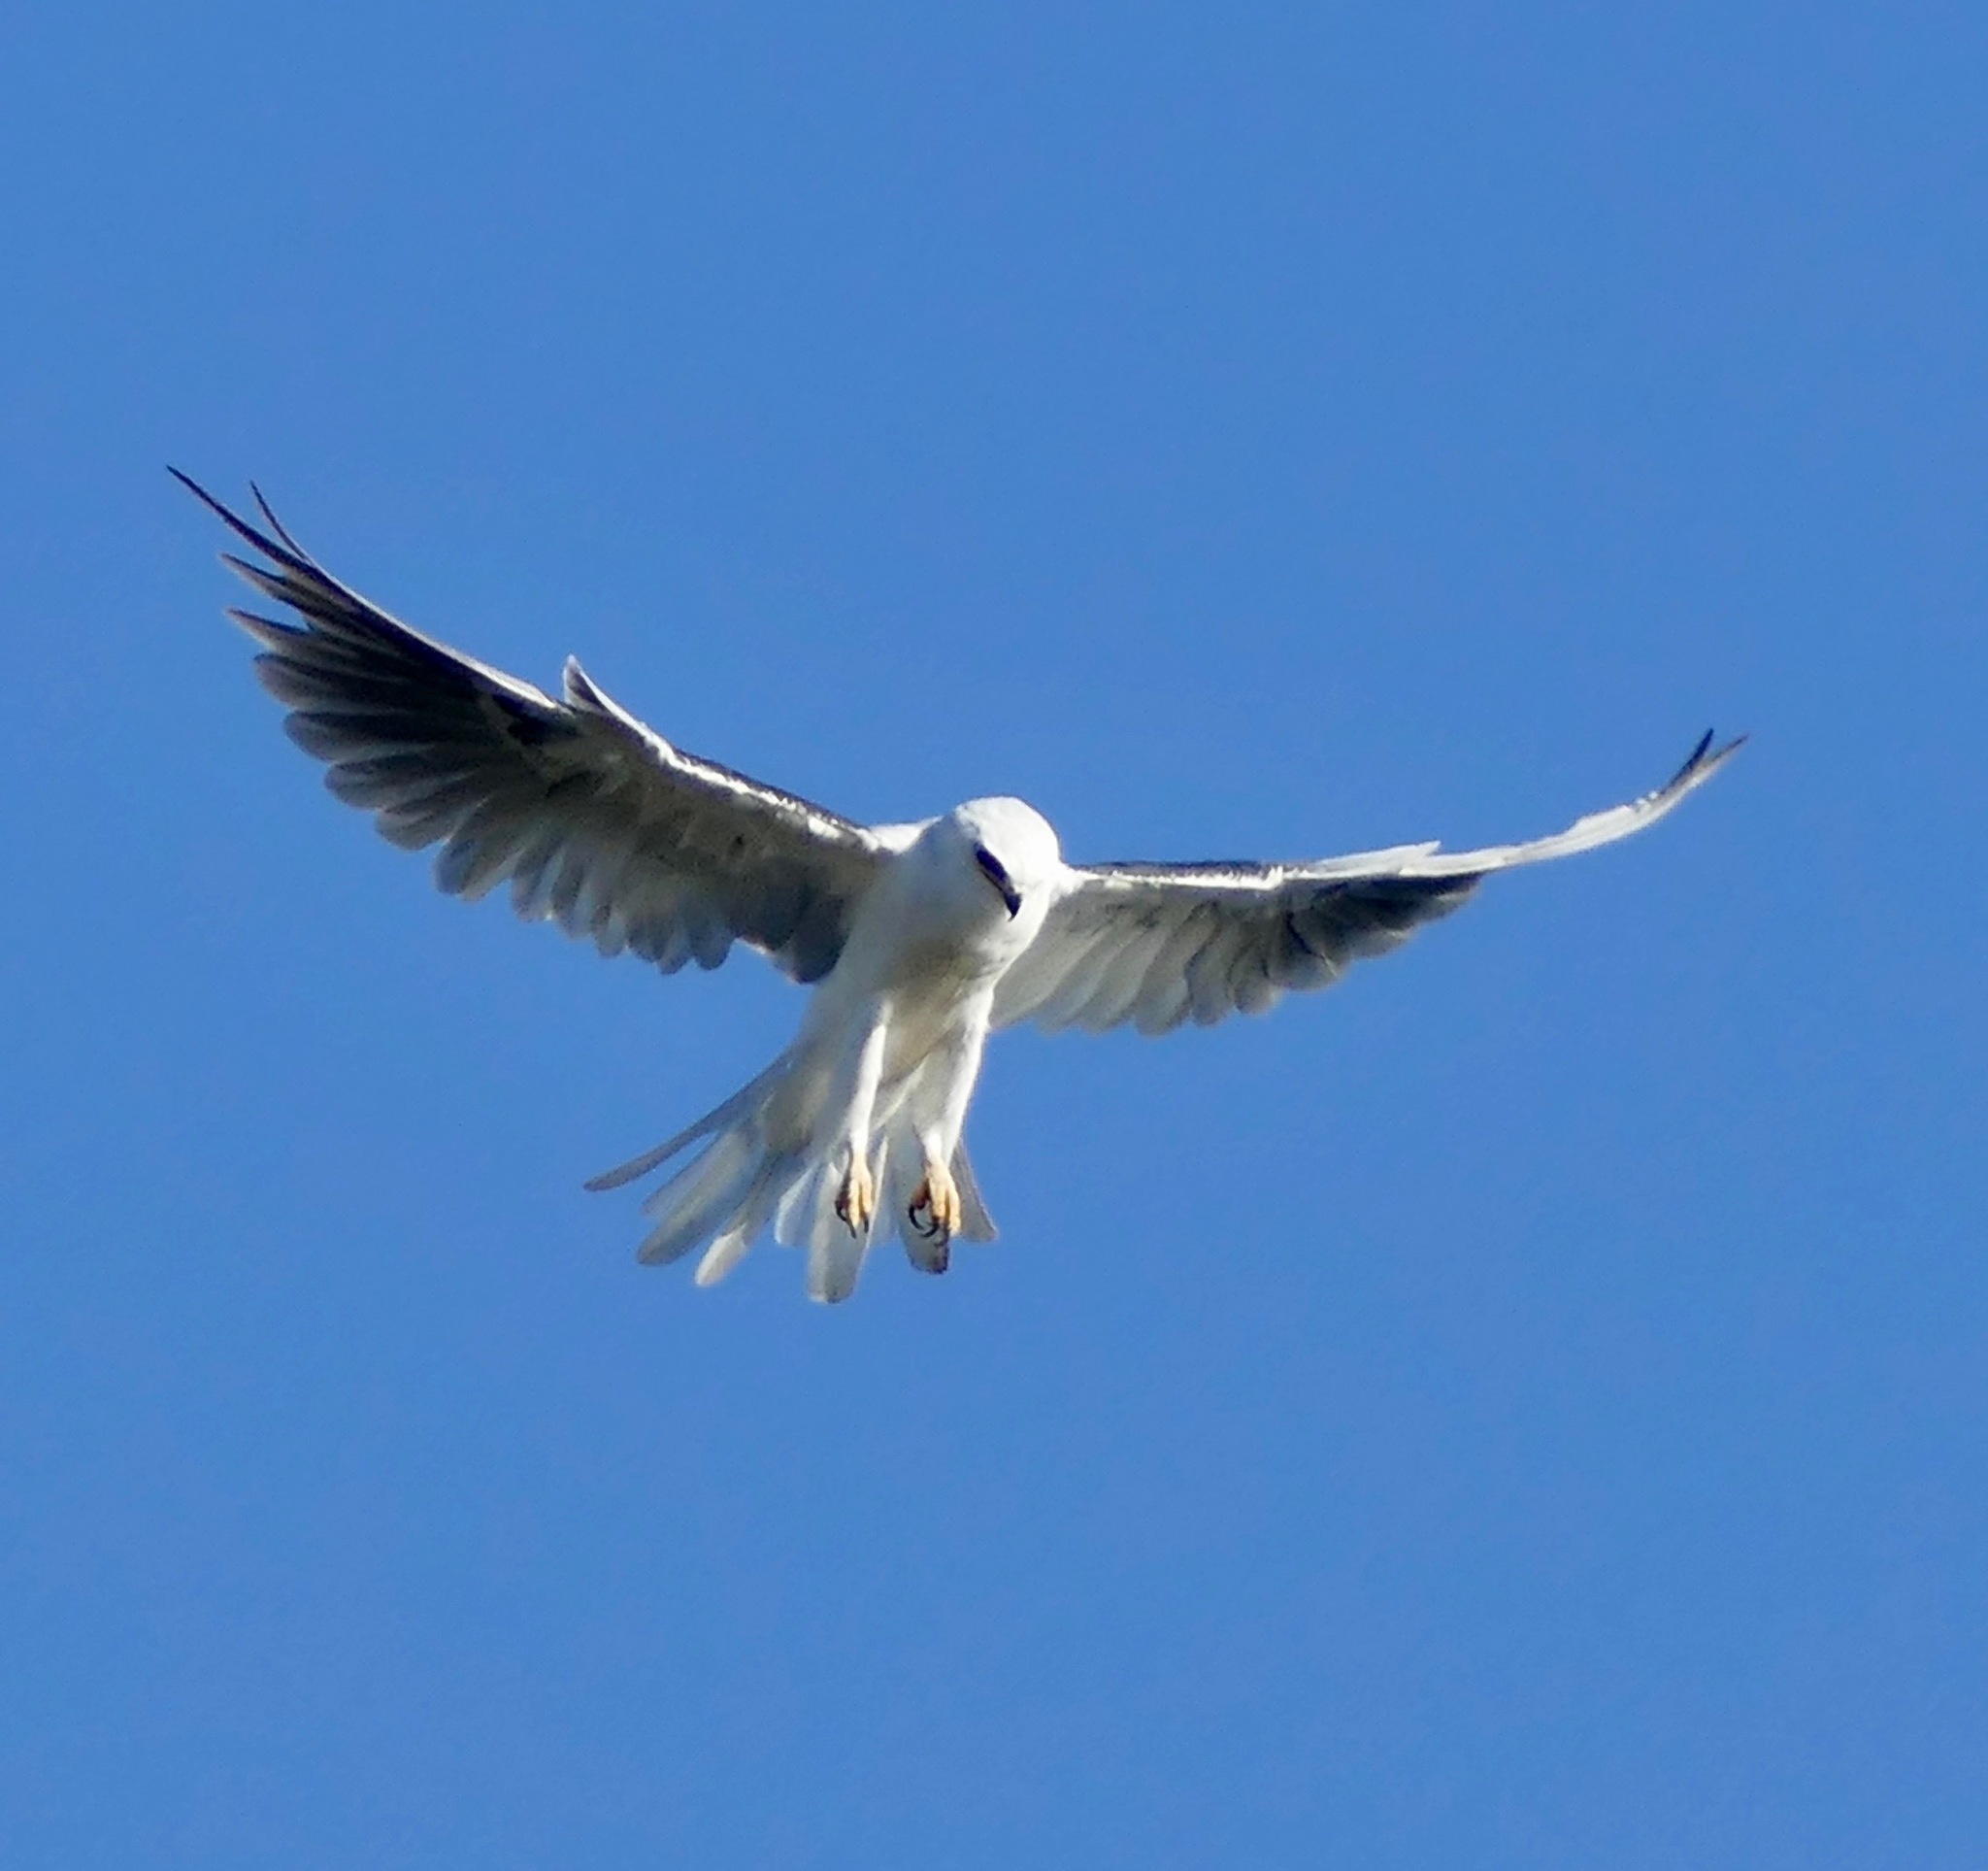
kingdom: Animalia
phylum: Chordata
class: Aves
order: Accipitriformes
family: Accipitridae
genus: Elanus
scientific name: Elanus leucurus
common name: White-tailed kite
